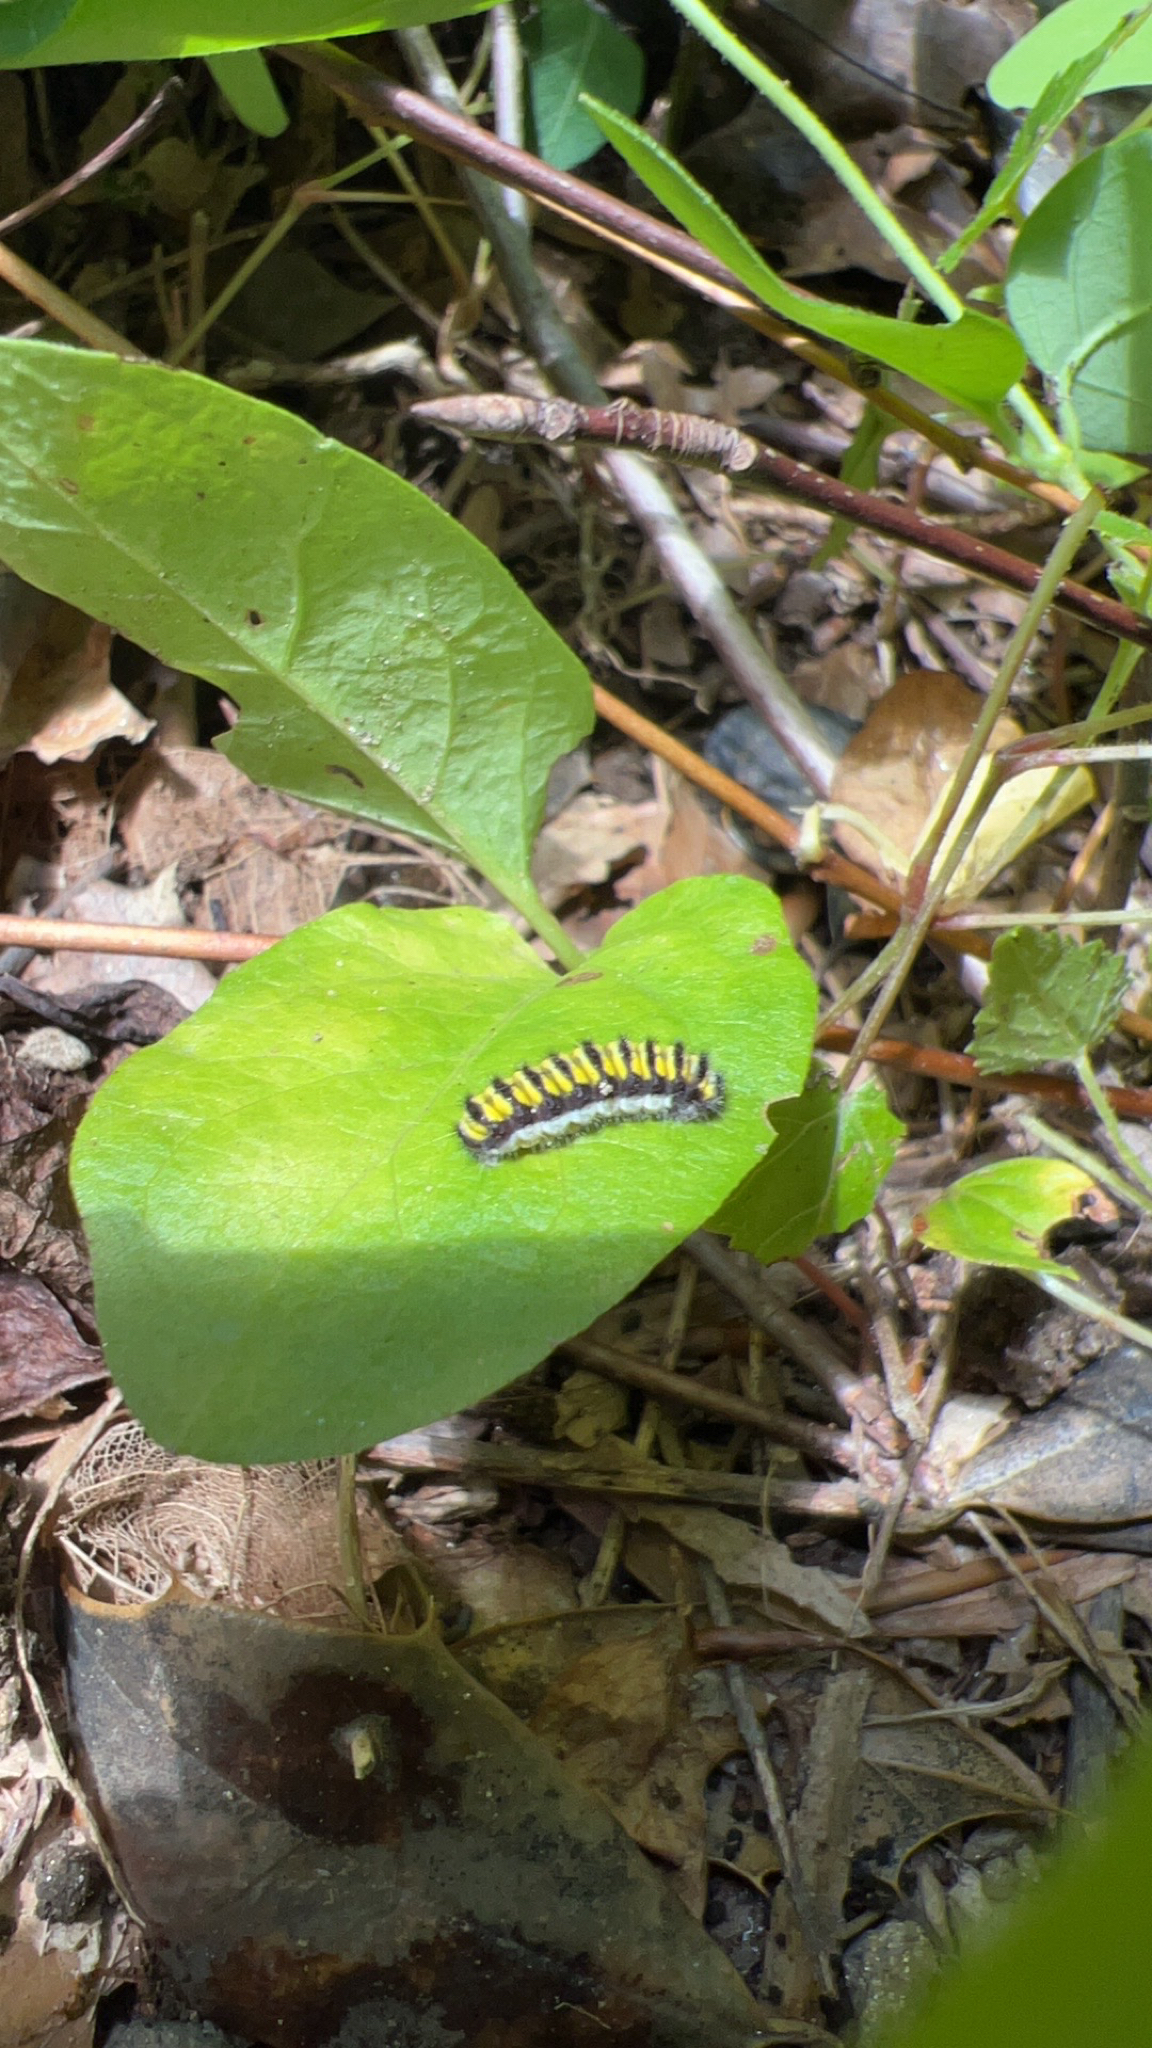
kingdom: Animalia
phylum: Arthropoda
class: Insecta
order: Lepidoptera
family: Zygaenidae
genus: Harrisina
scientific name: Harrisina americana
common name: Grapeleaf skeletonizer moth
